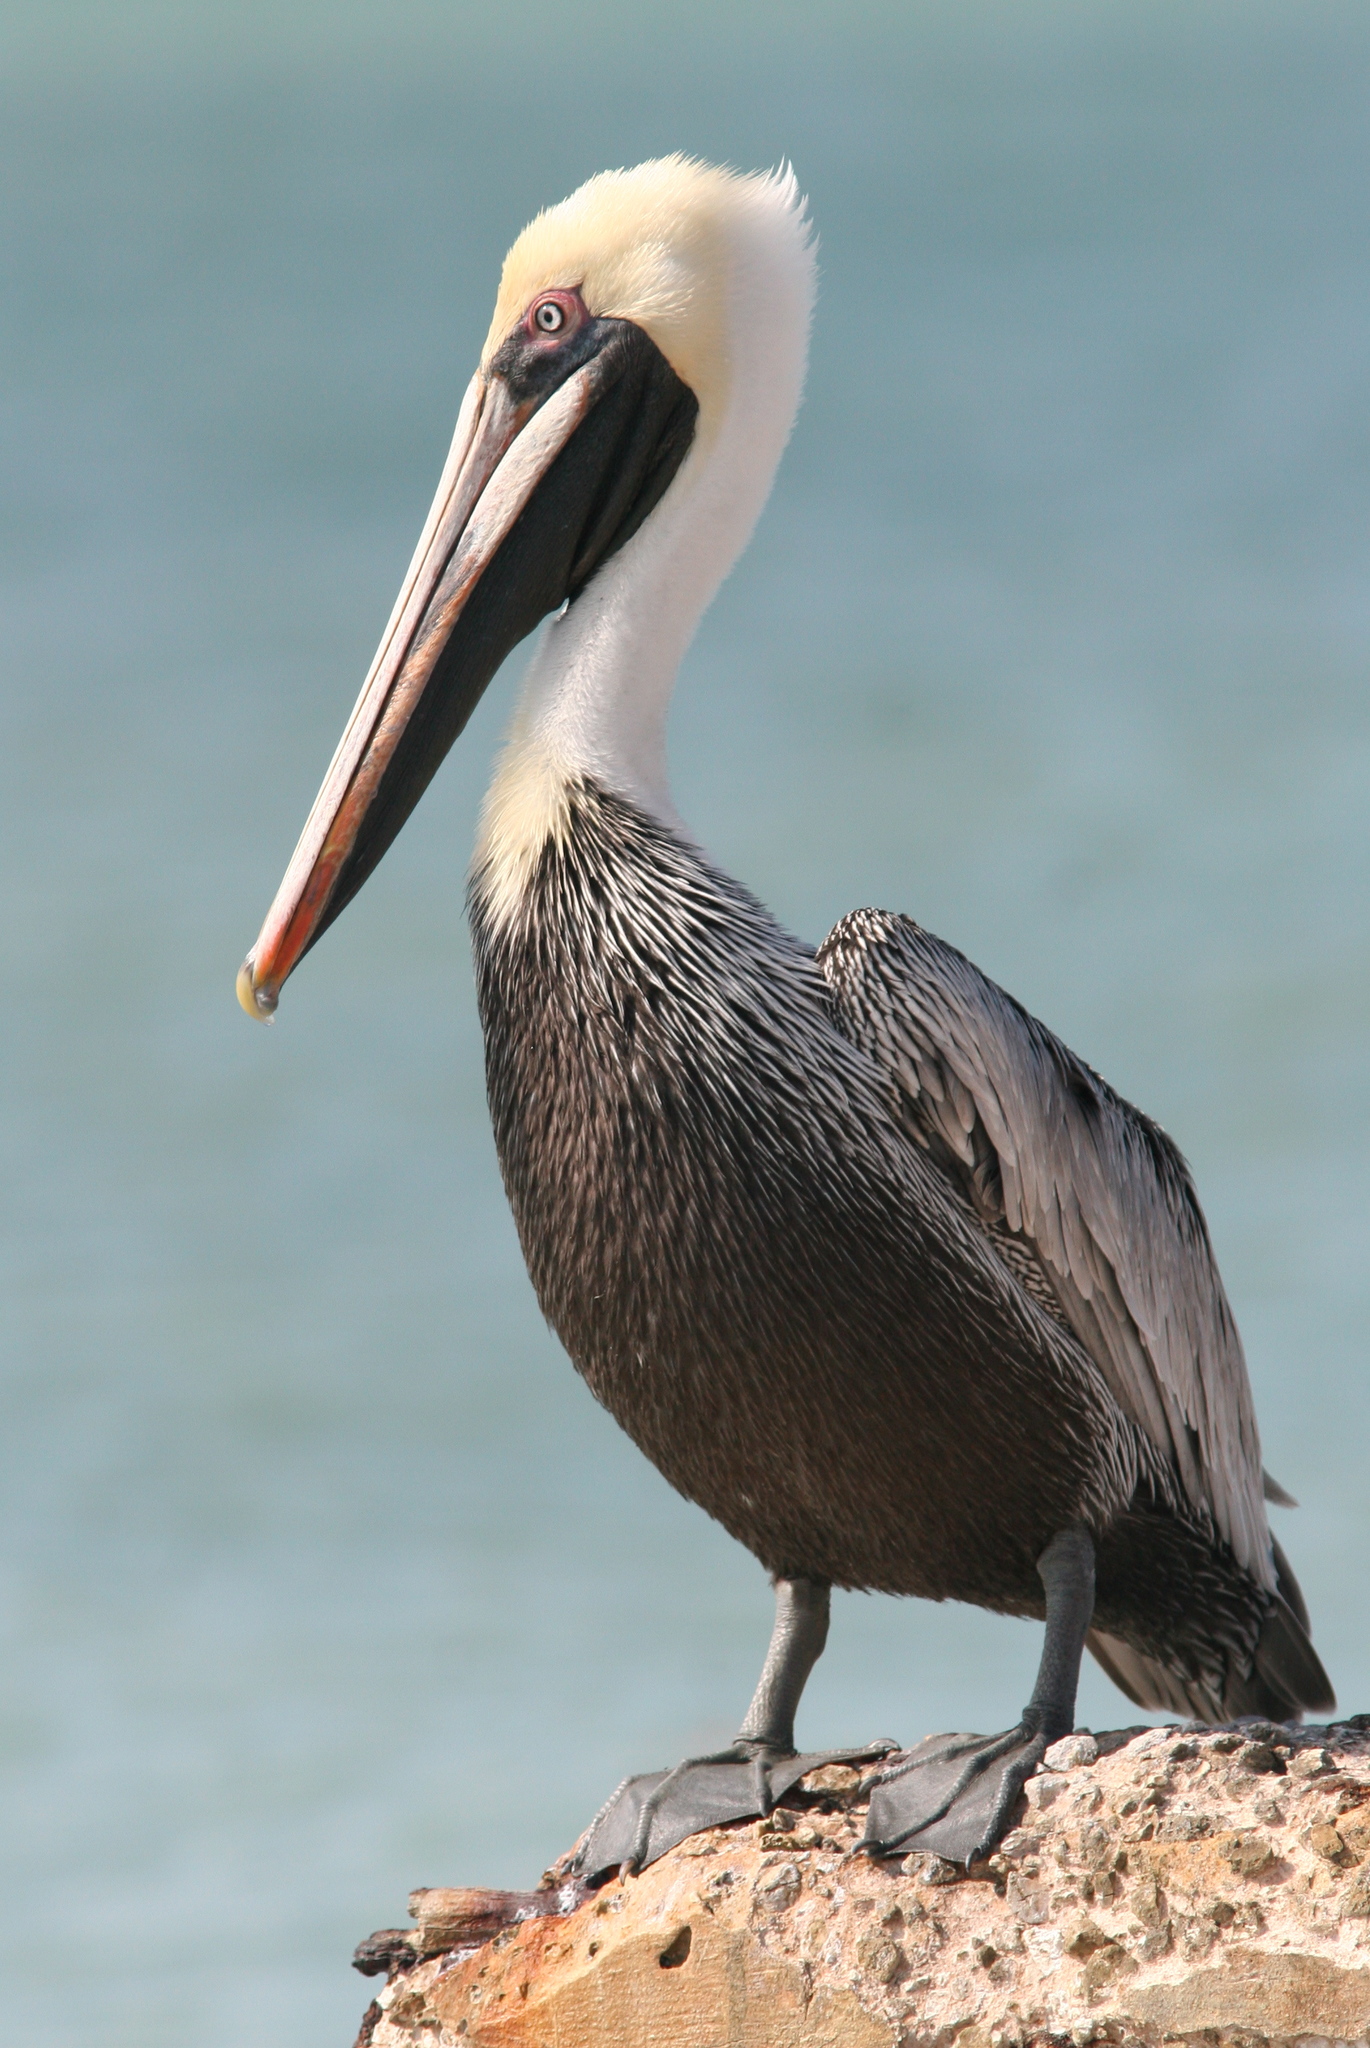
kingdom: Animalia
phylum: Chordata
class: Aves
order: Pelecaniformes
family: Pelecanidae
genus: Pelecanus
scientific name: Pelecanus occidentalis
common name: Brown pelican
